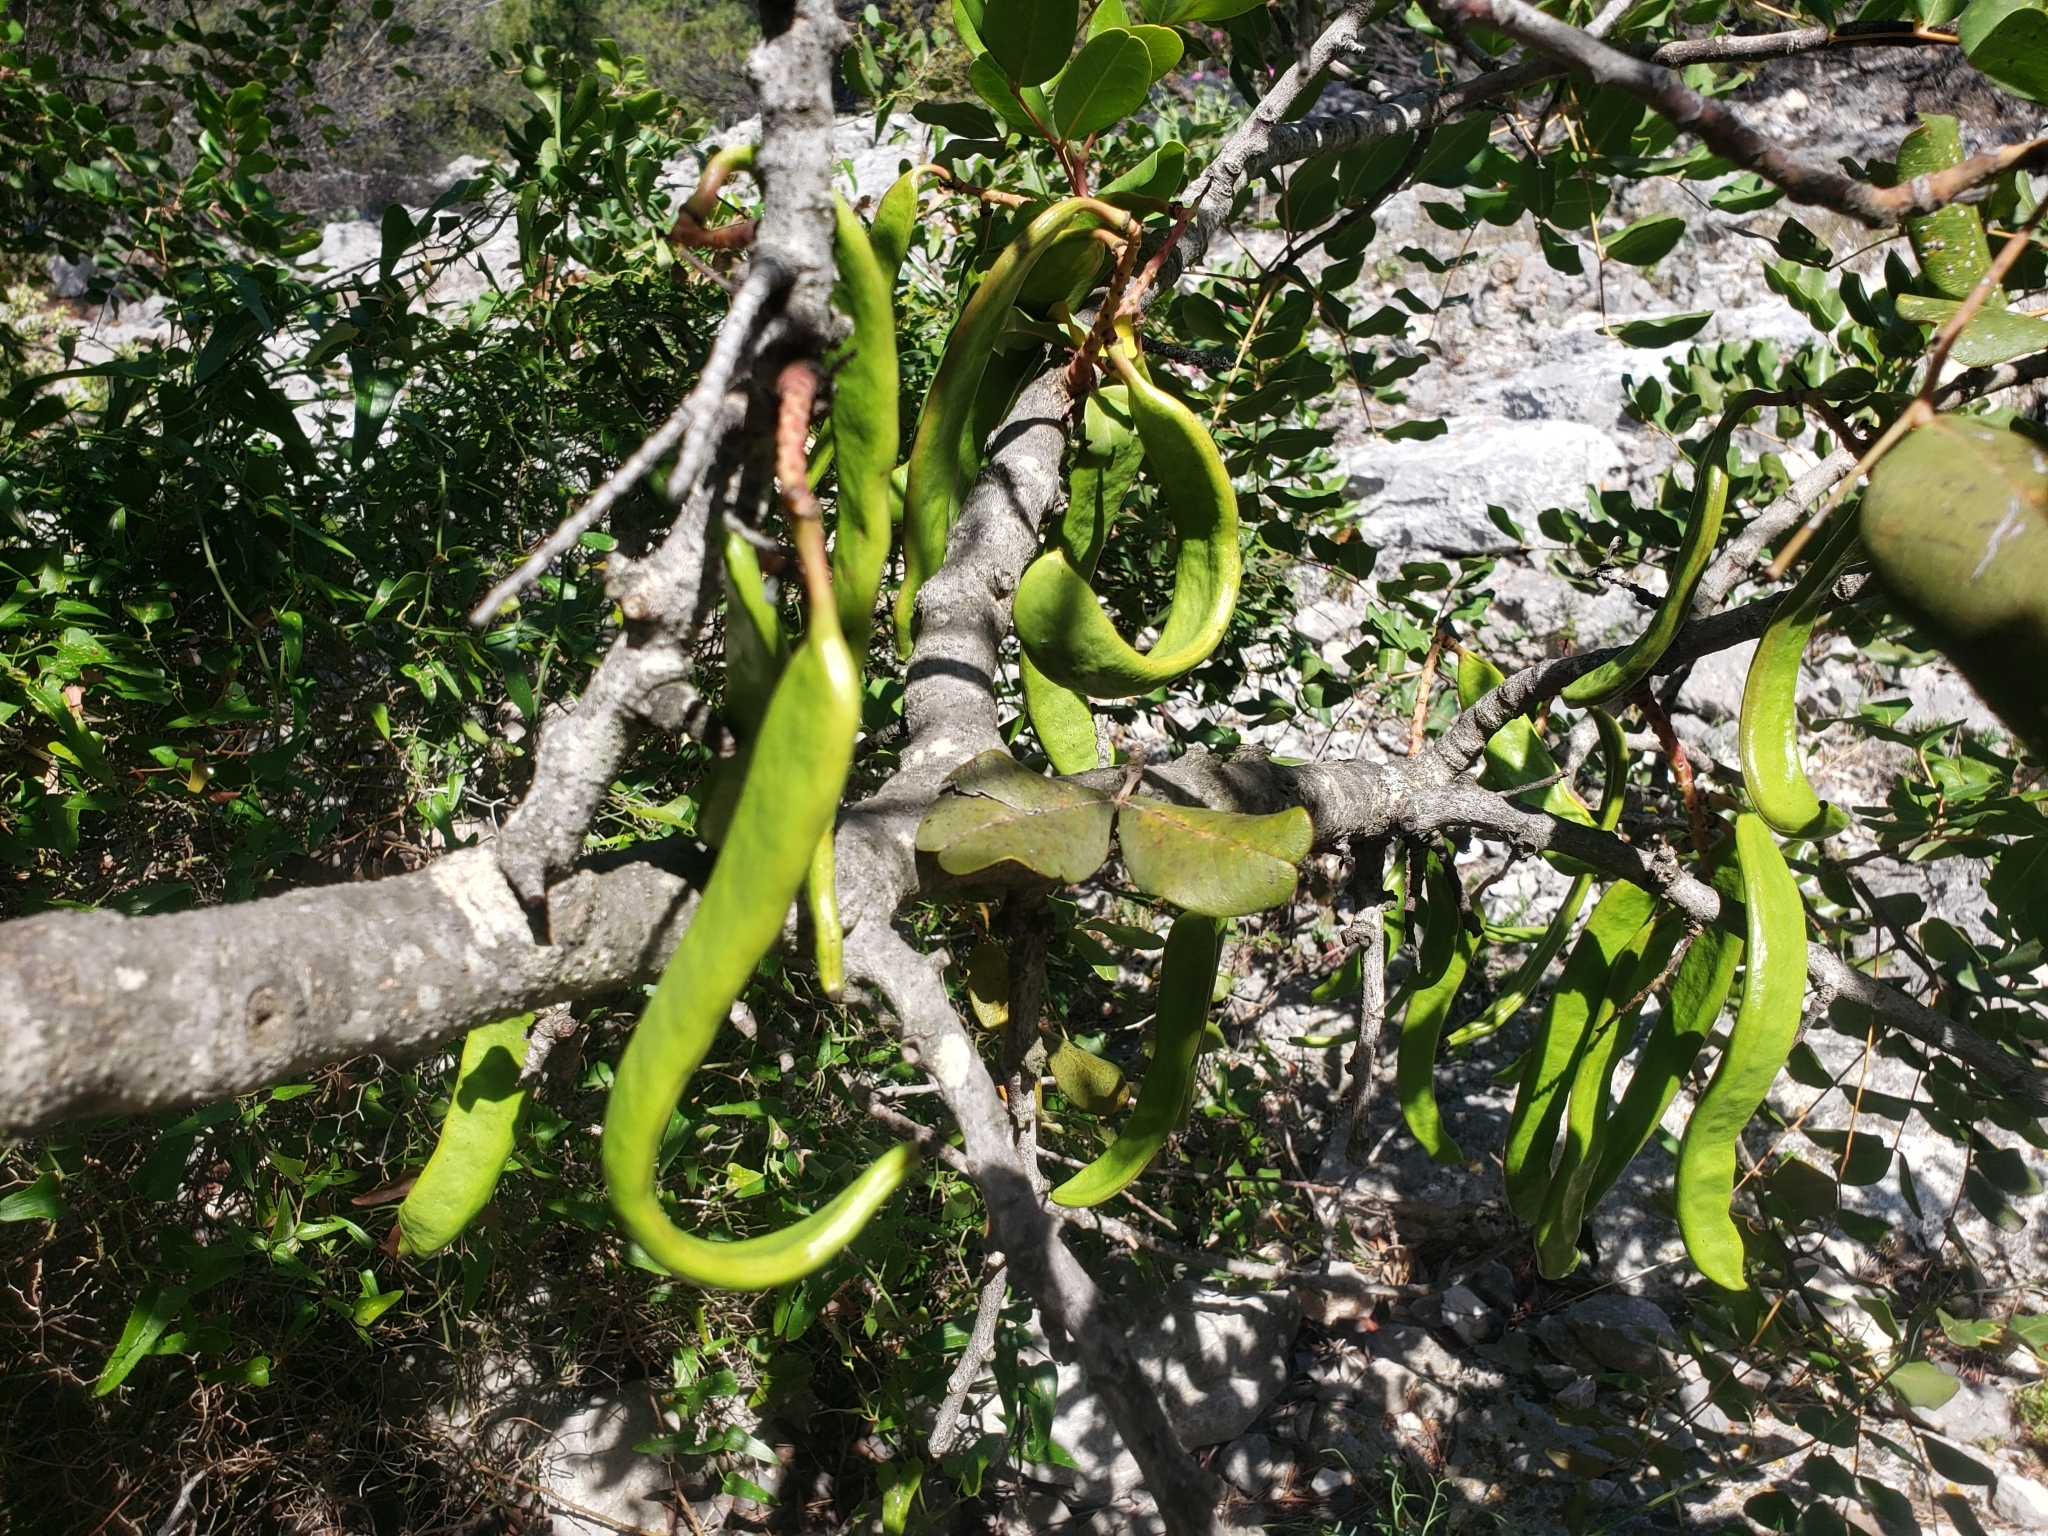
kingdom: Plantae
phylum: Tracheophyta
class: Magnoliopsida
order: Fabales
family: Fabaceae
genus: Ceratonia
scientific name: Ceratonia siliqua
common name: Carob
